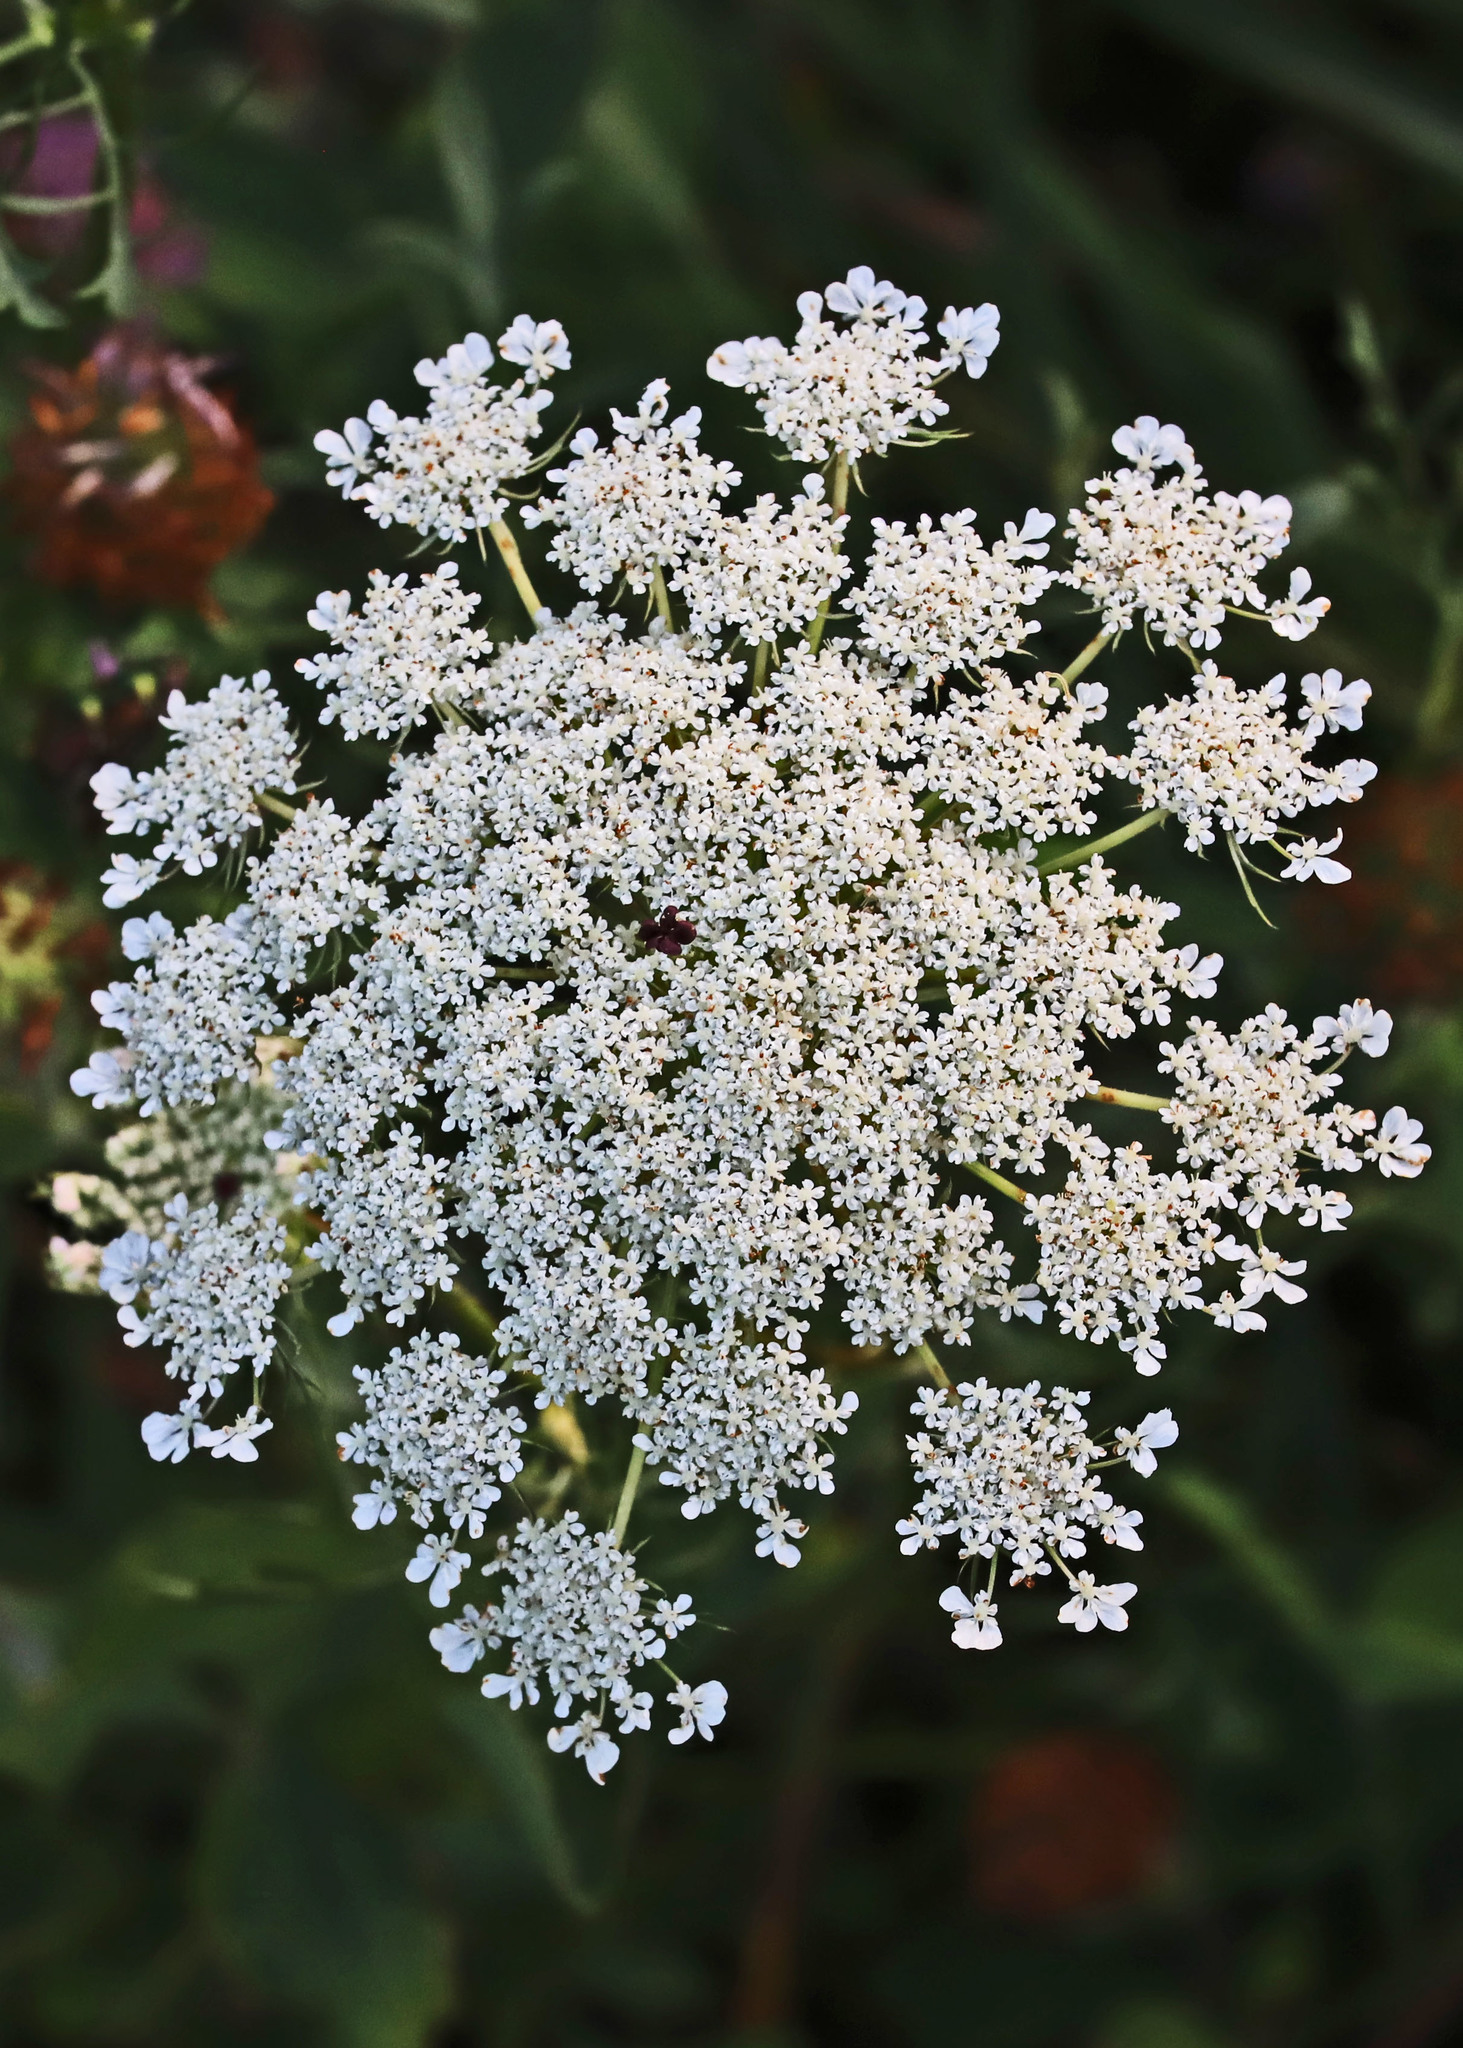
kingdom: Plantae
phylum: Tracheophyta
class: Magnoliopsida
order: Apiales
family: Apiaceae
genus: Daucus
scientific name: Daucus carota
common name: Wild carrot
